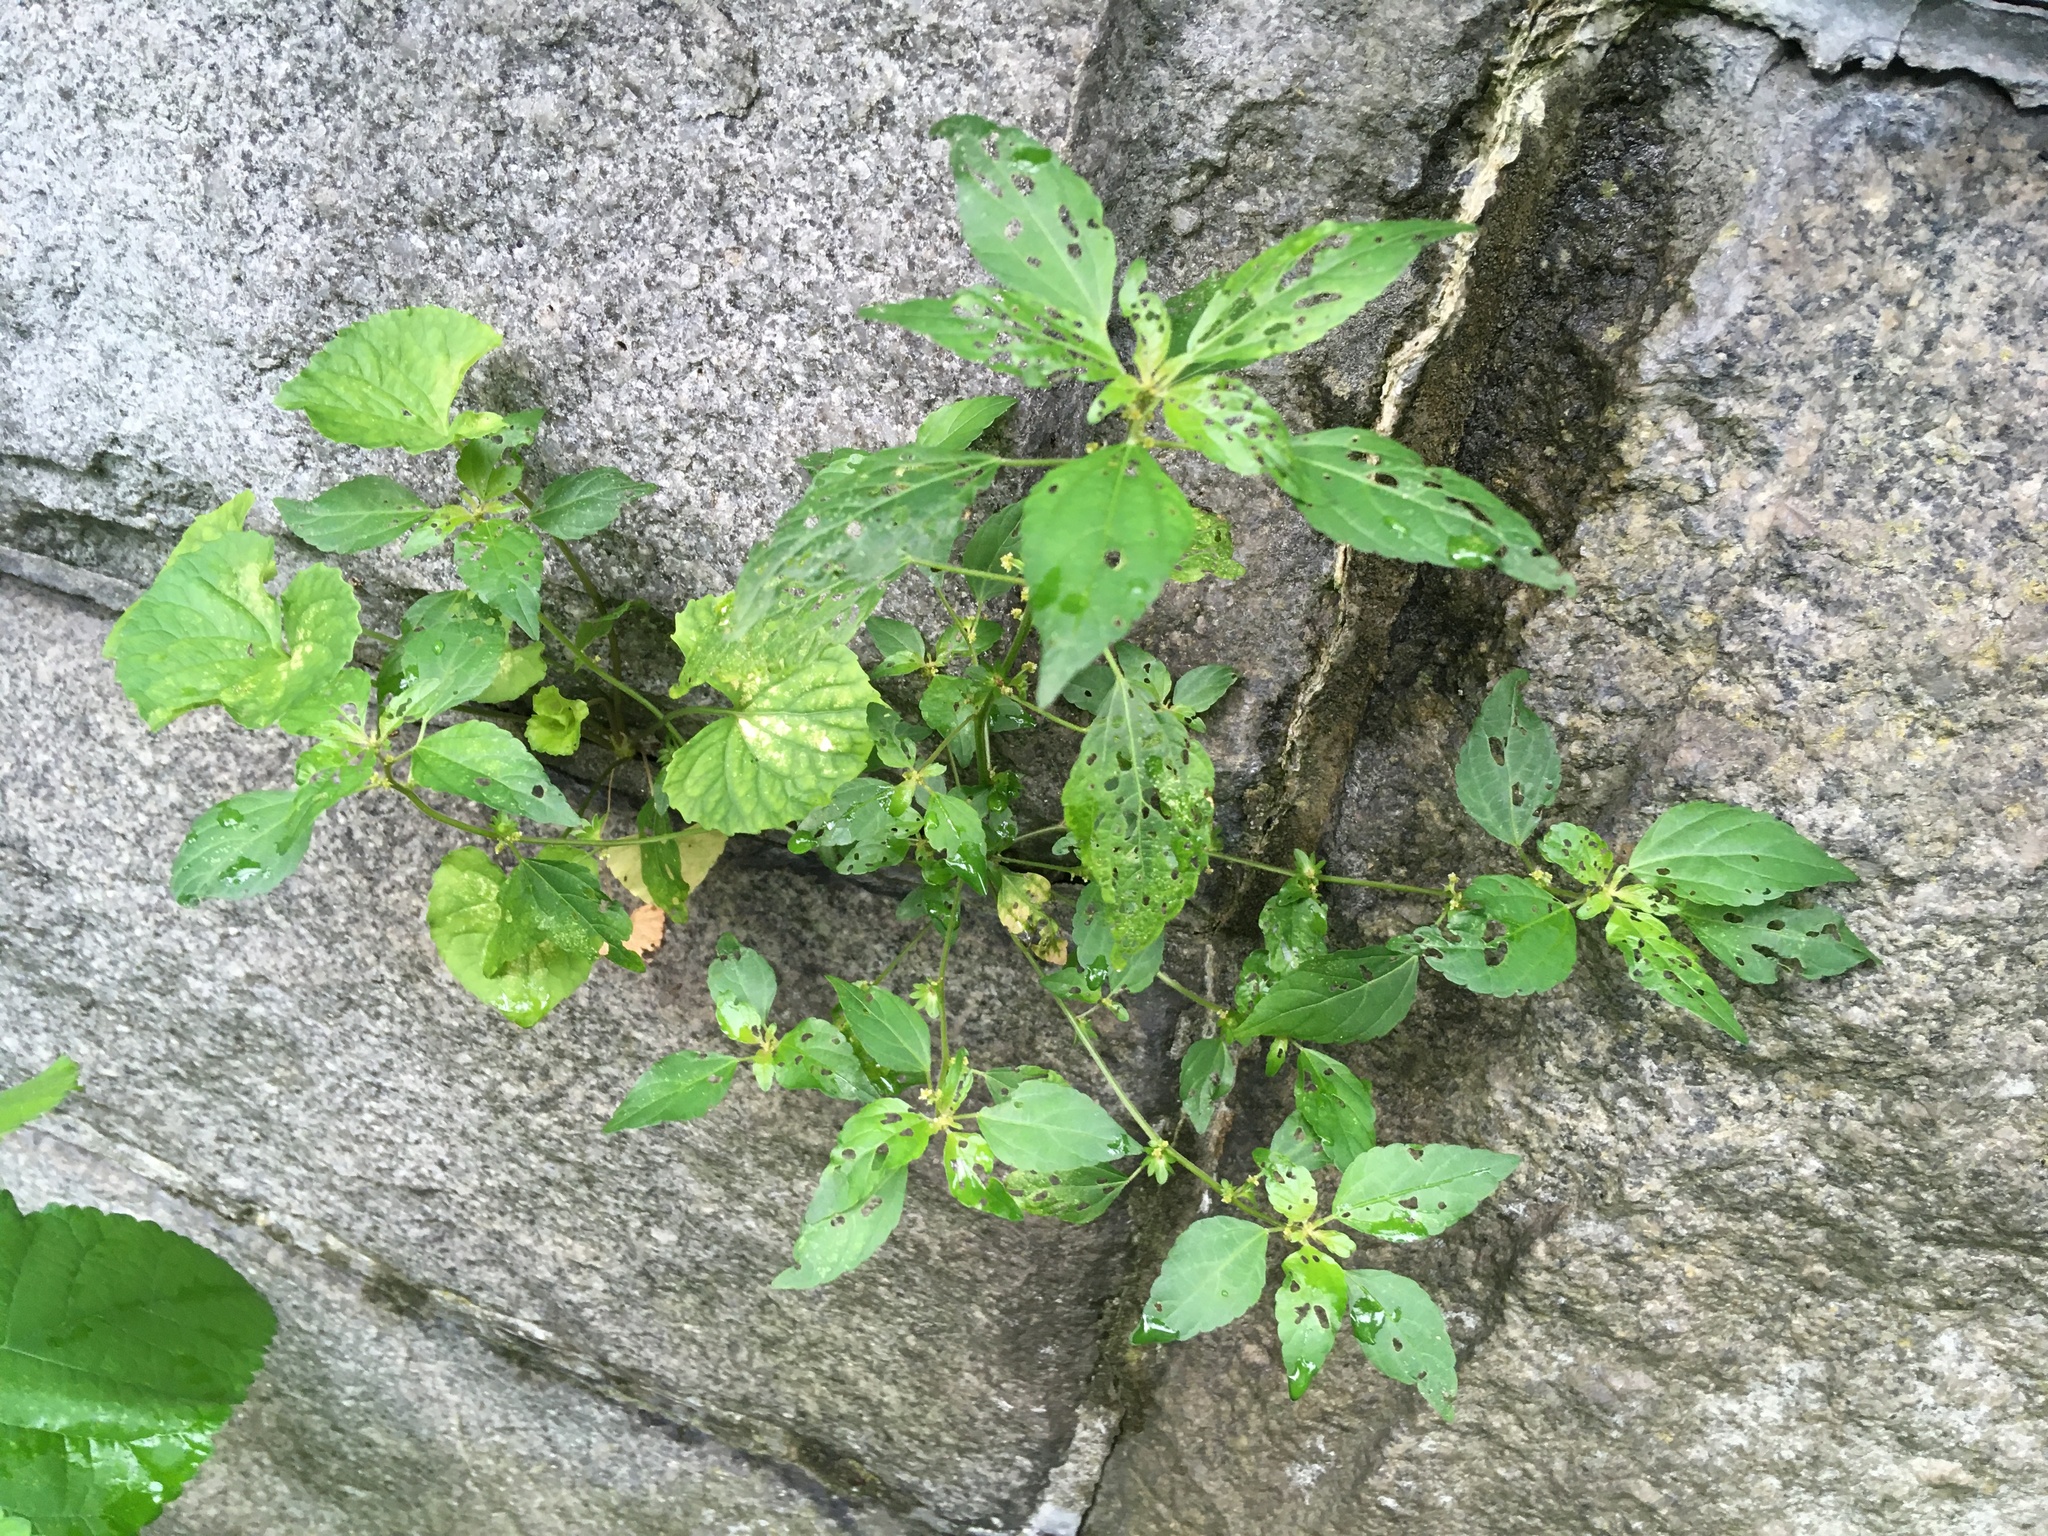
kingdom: Plantae
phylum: Tracheophyta
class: Magnoliopsida
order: Malpighiales
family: Euphorbiaceae
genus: Acalypha
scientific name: Acalypha rhomboidea
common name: Rhombic copperleaf
